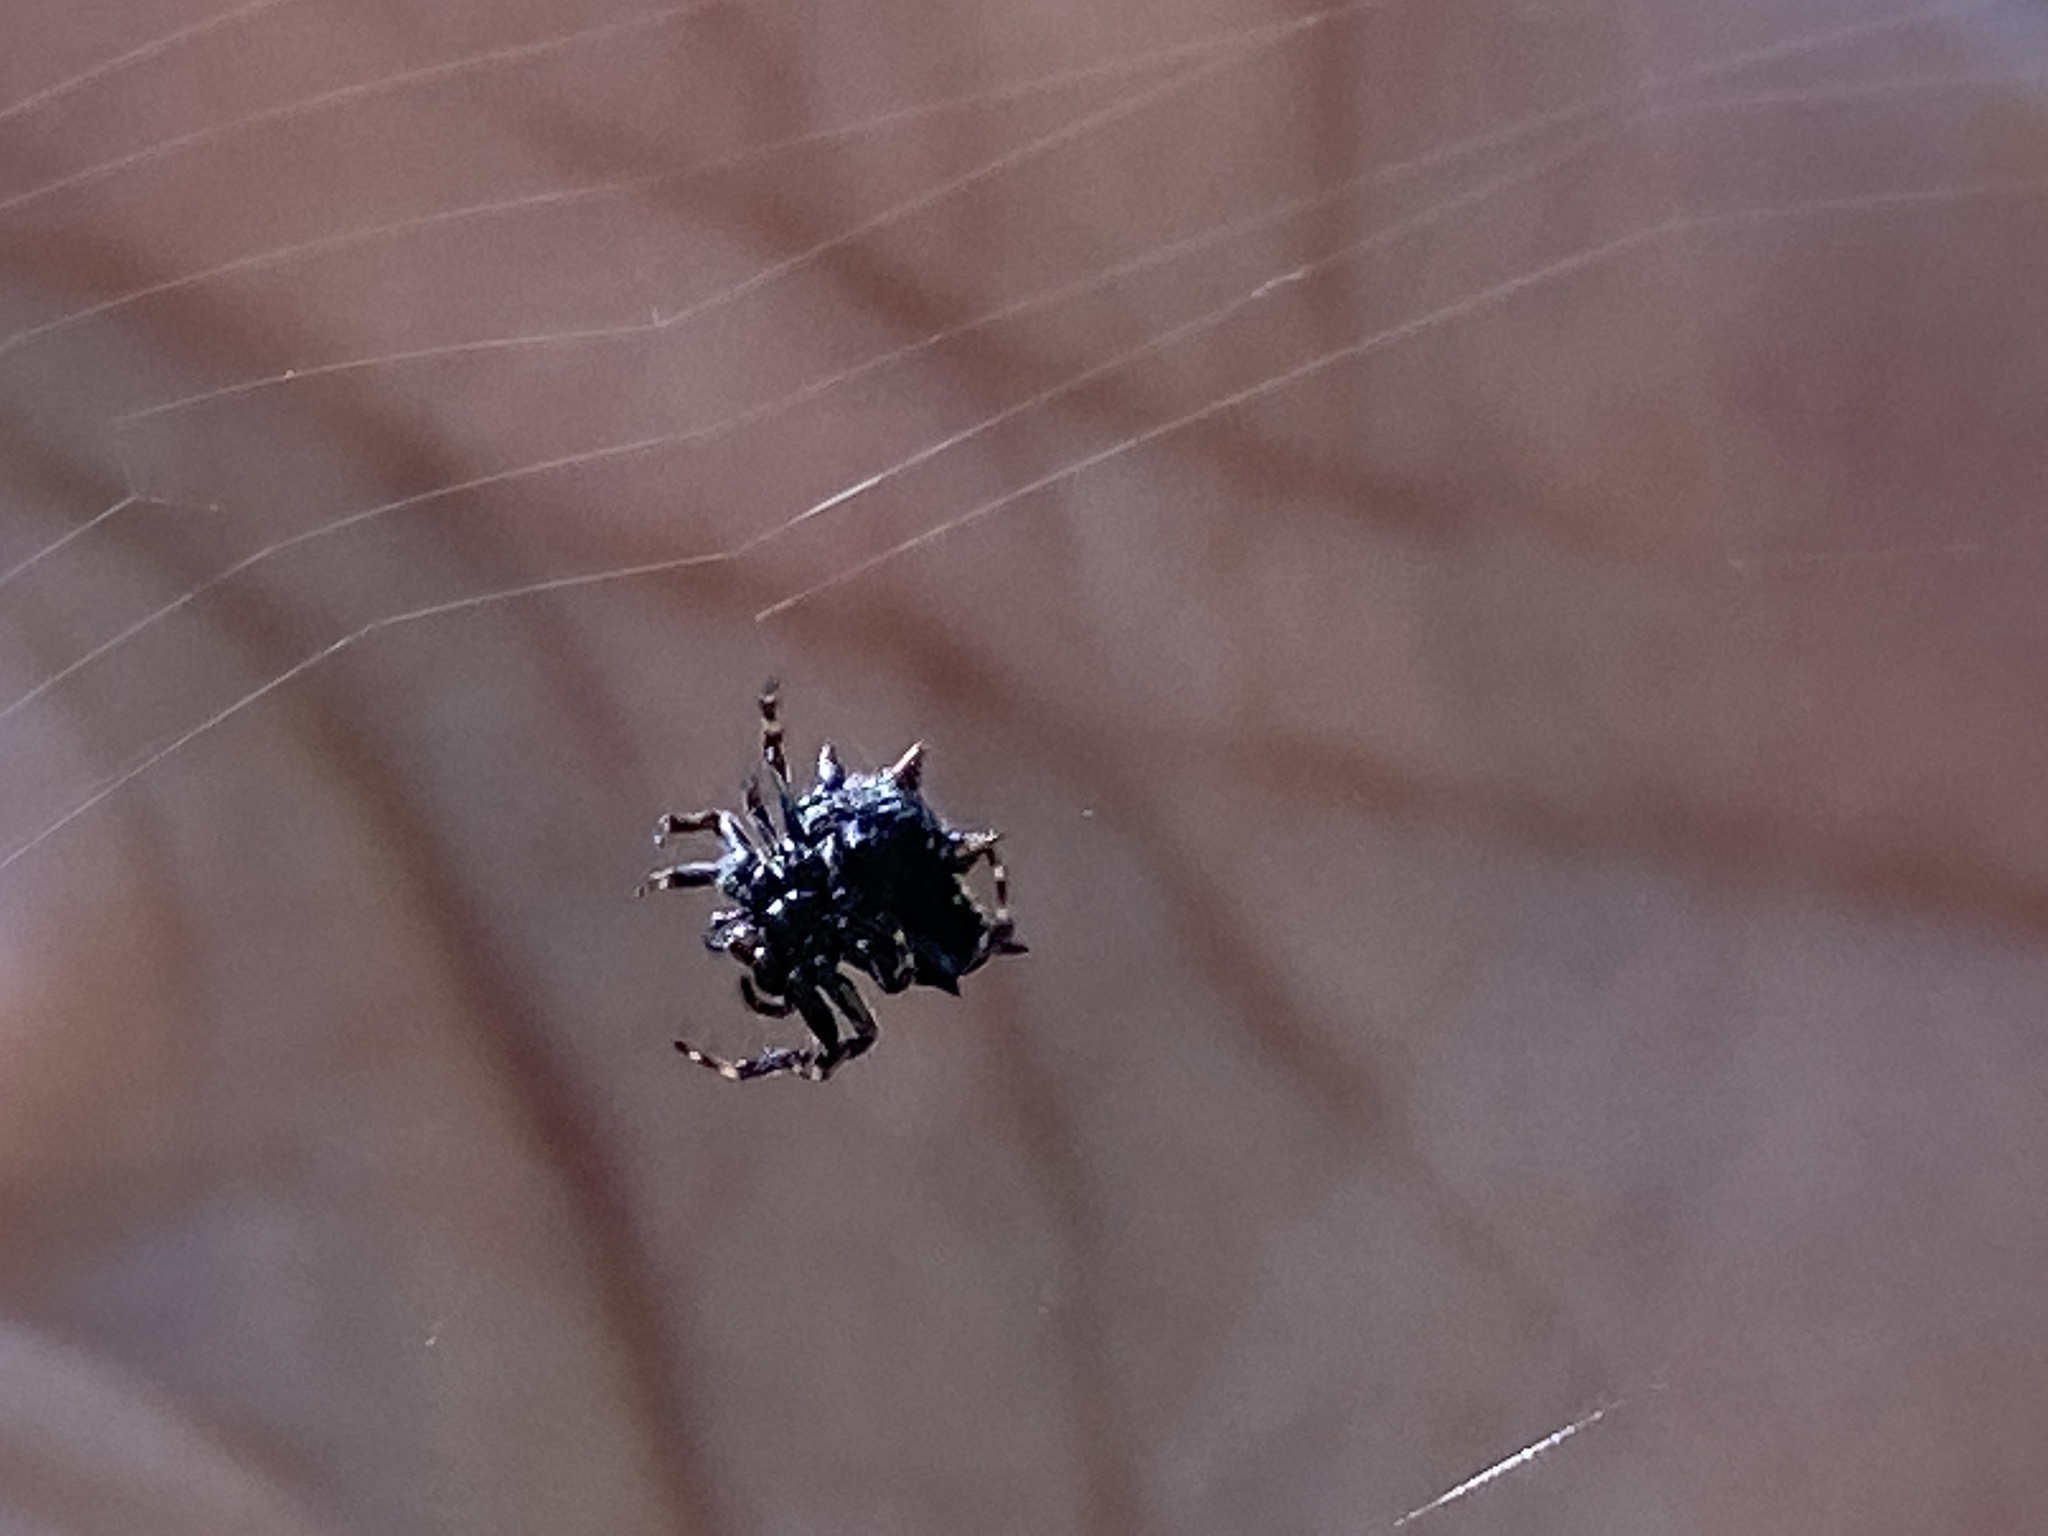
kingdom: Animalia
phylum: Arthropoda
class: Arachnida
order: Araneae
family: Araneidae
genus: Gasteracantha
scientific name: Gasteracantha cancriformis
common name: Orb weavers
